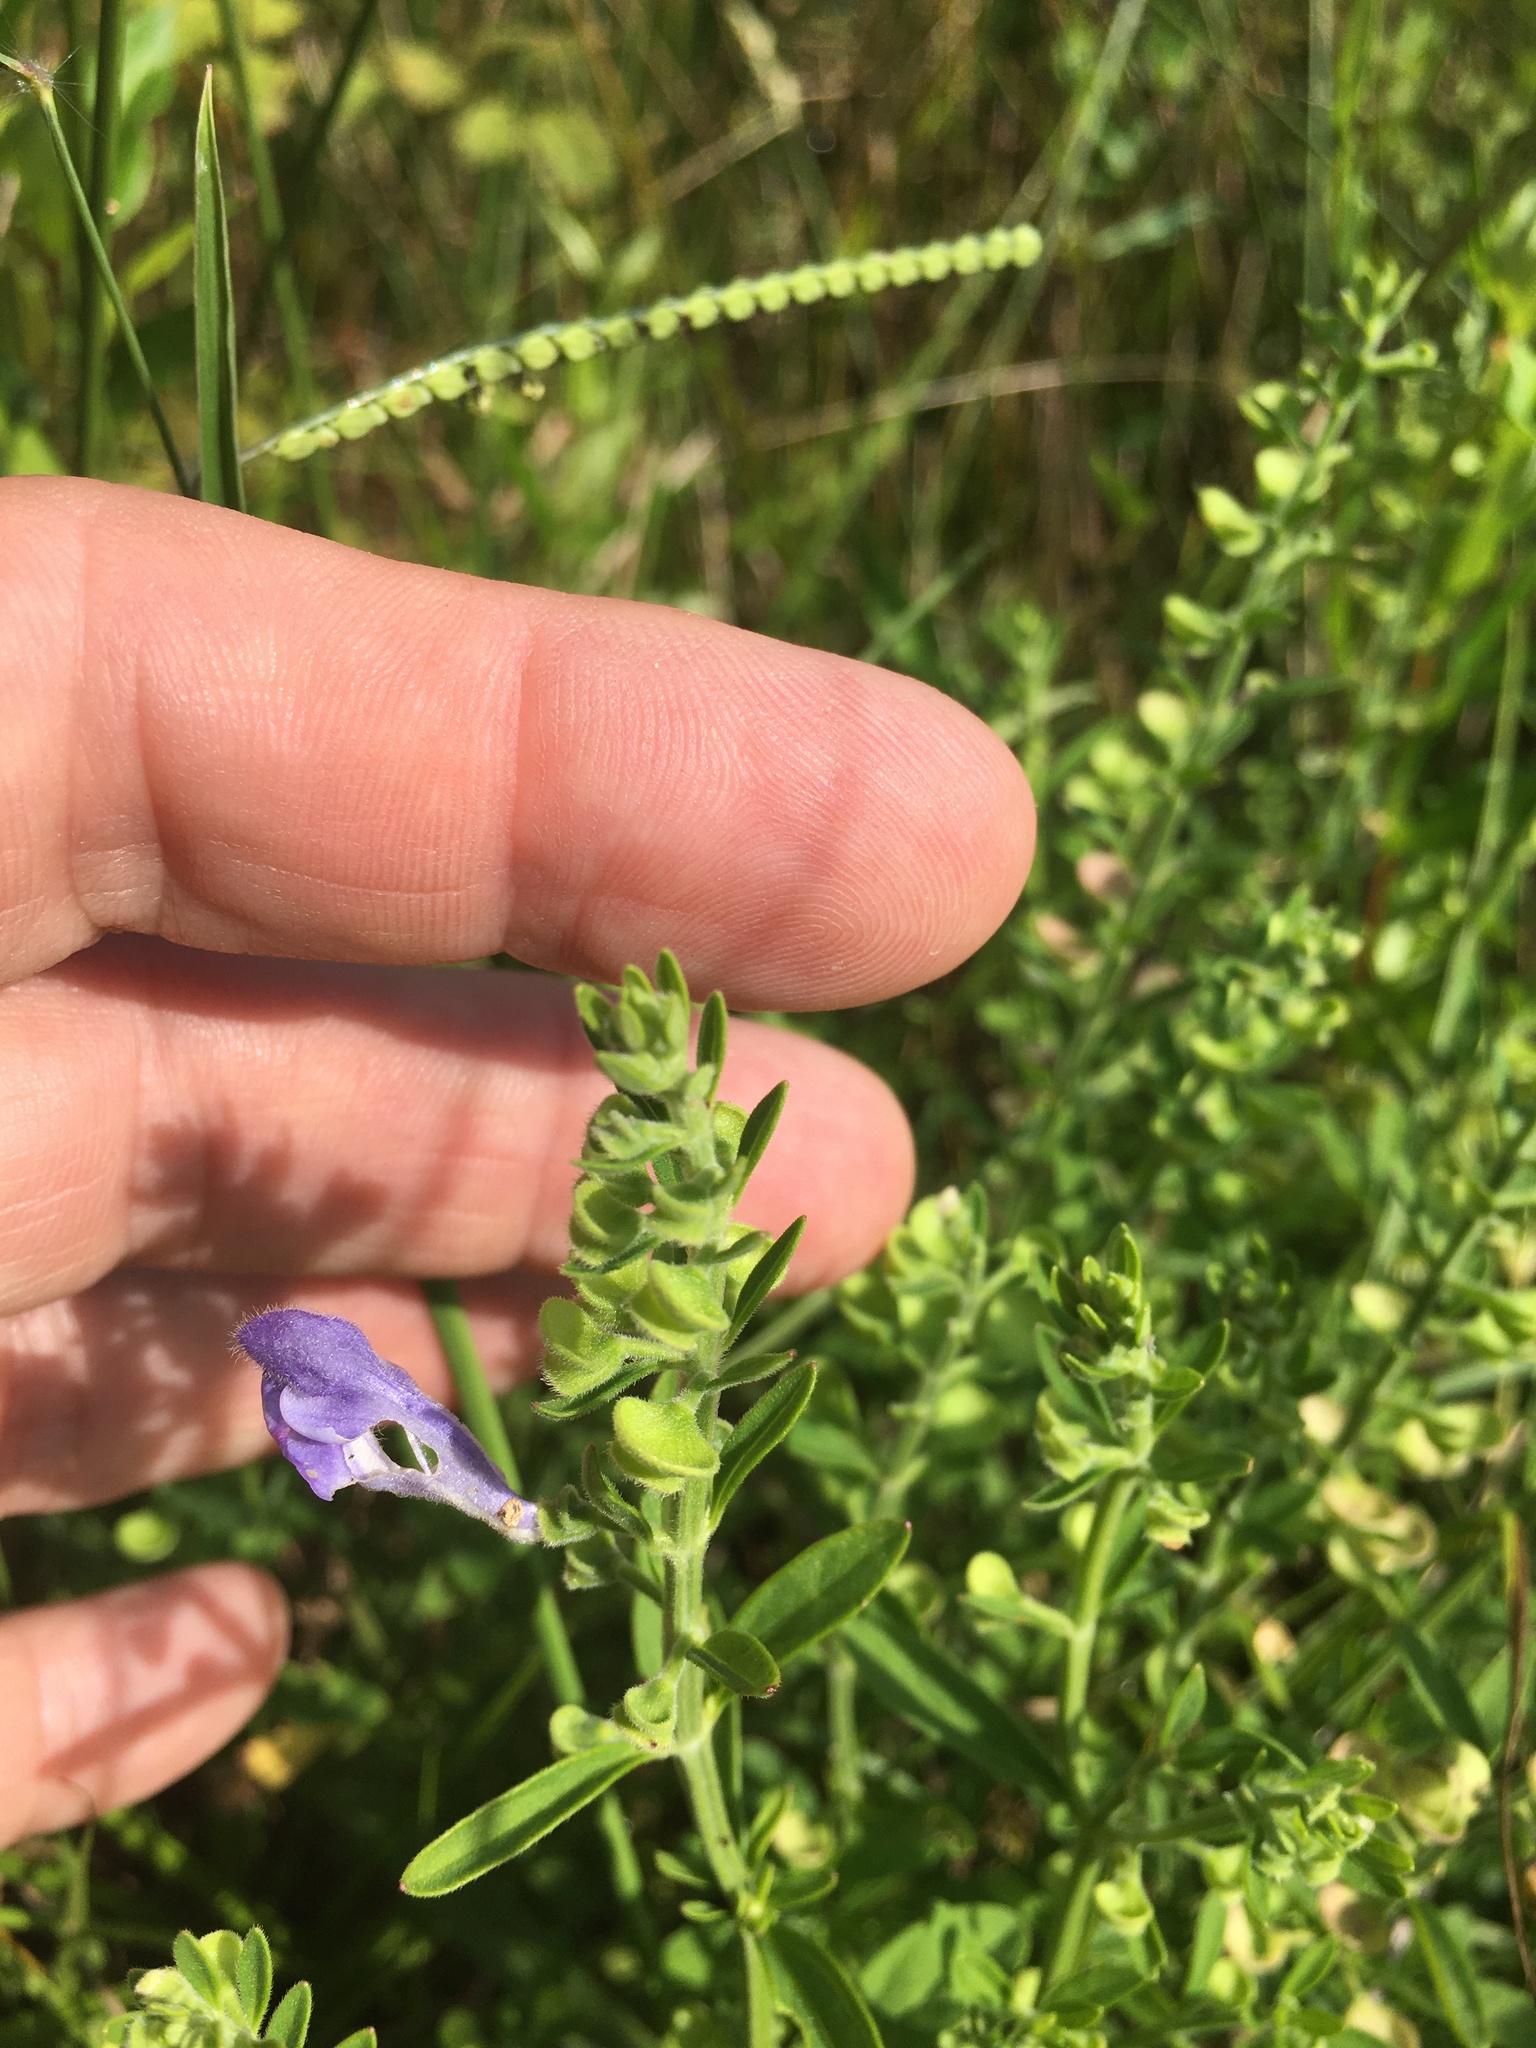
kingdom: Plantae
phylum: Tracheophyta
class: Magnoliopsida
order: Lamiales
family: Lamiaceae
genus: Scutellaria
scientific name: Scutellaria integrifolia
